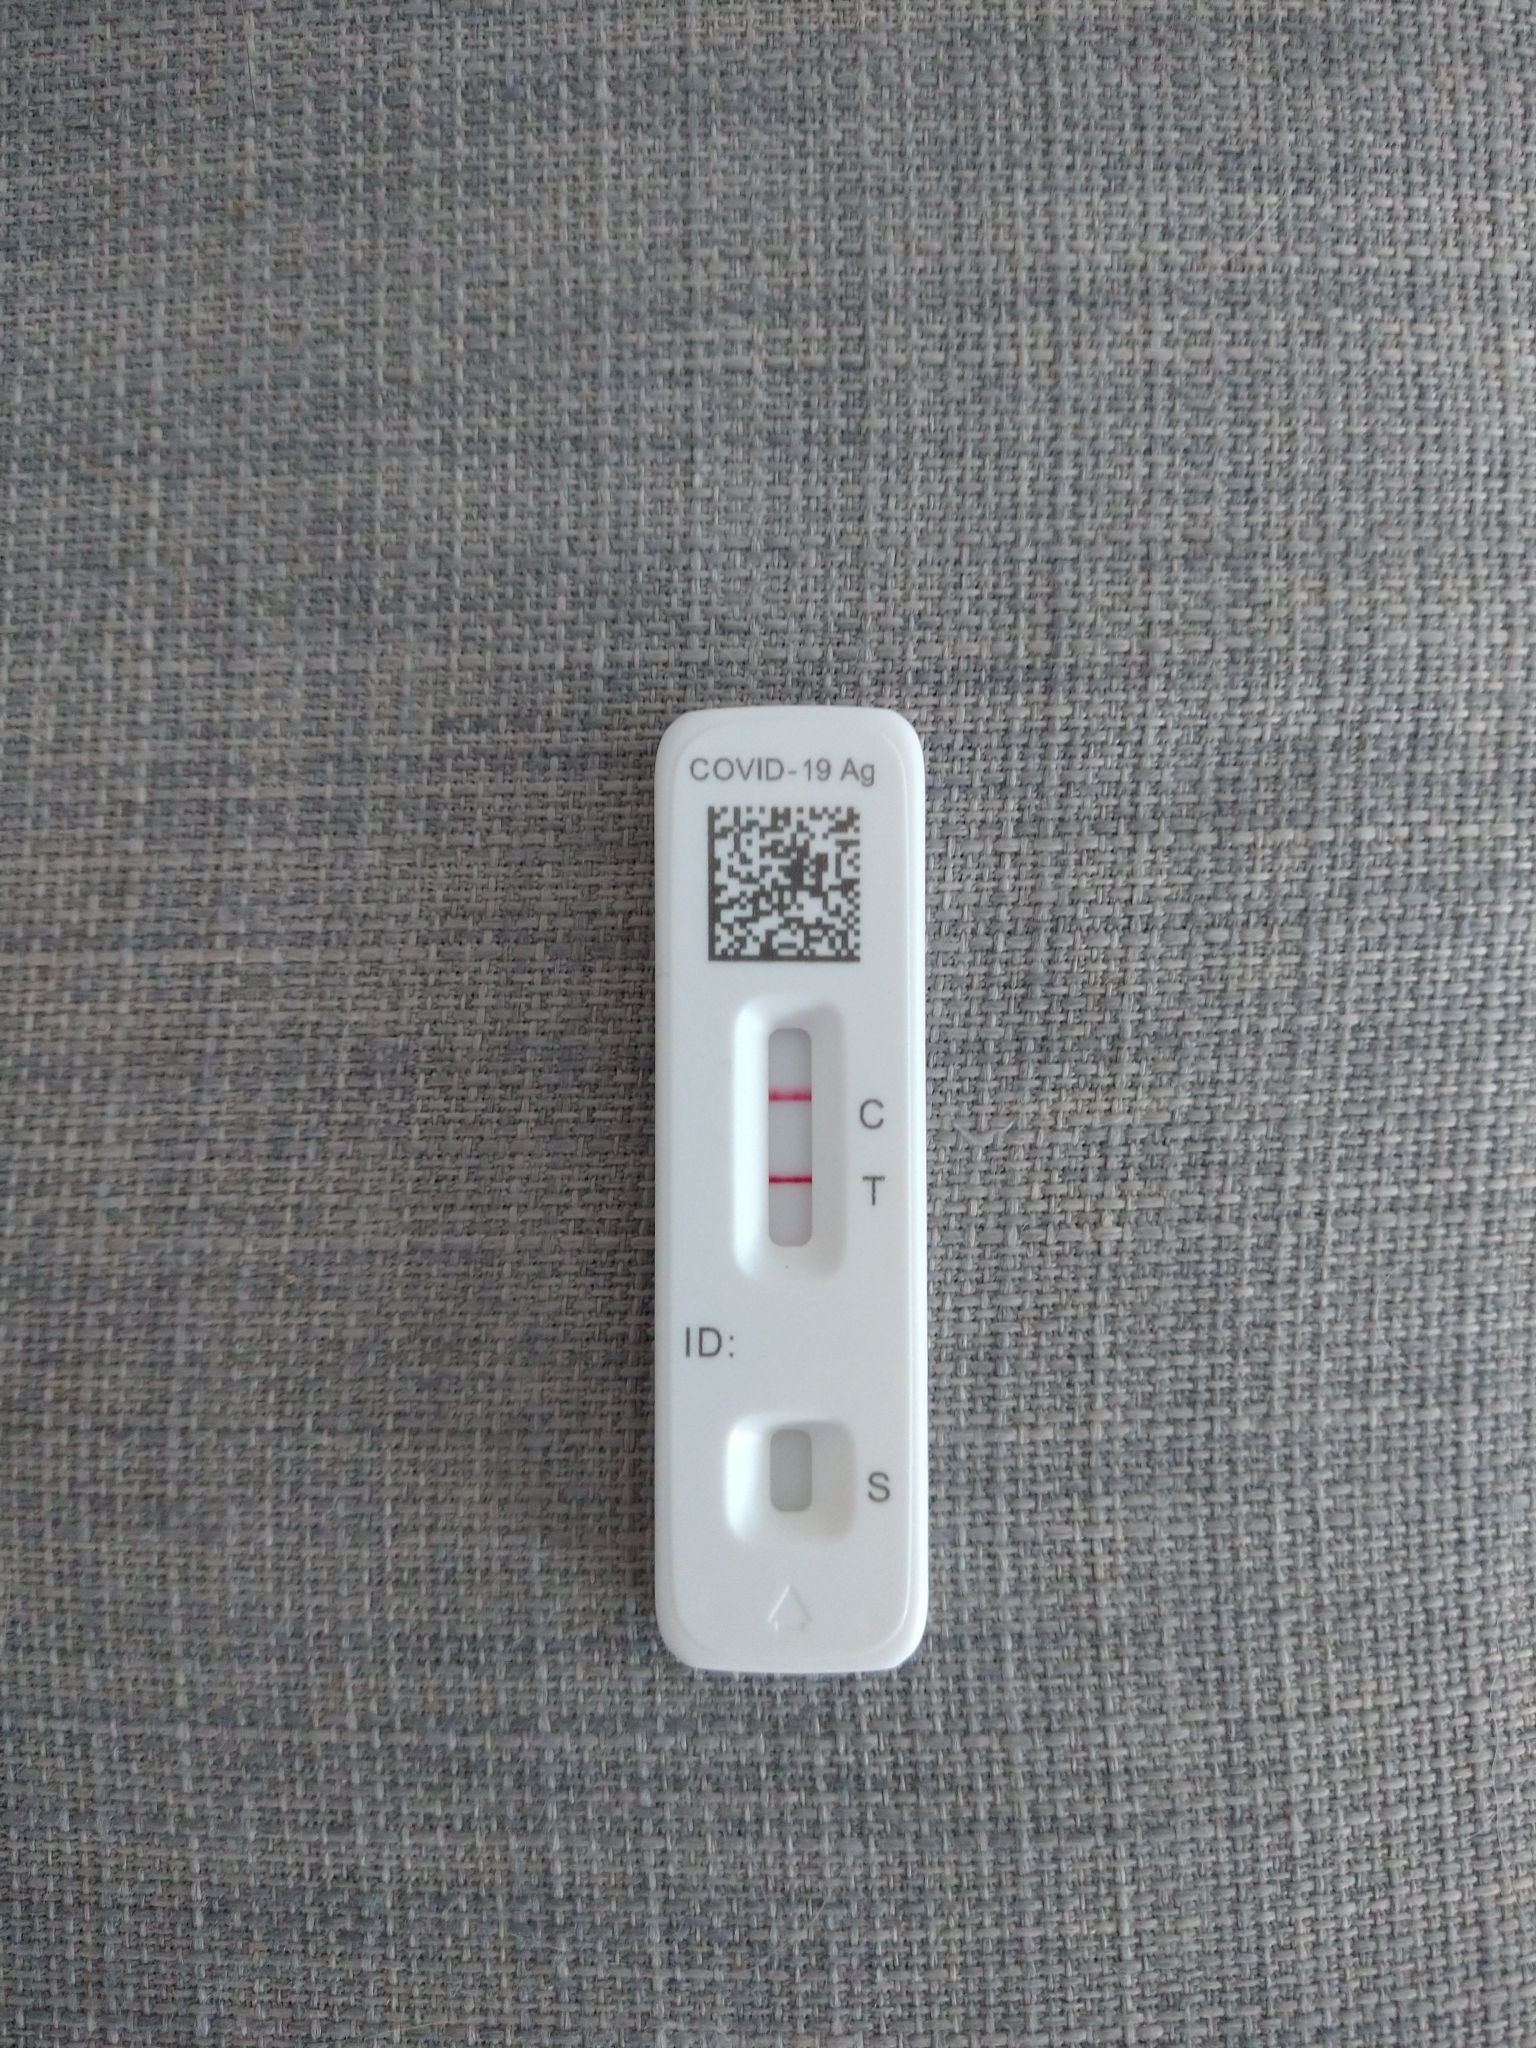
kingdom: Viruses
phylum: Pisuviricota
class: Pisoniviricetes
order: Nidovirales
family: Coronaviridae
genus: Betacoronavirus
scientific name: Betacoronavirus
